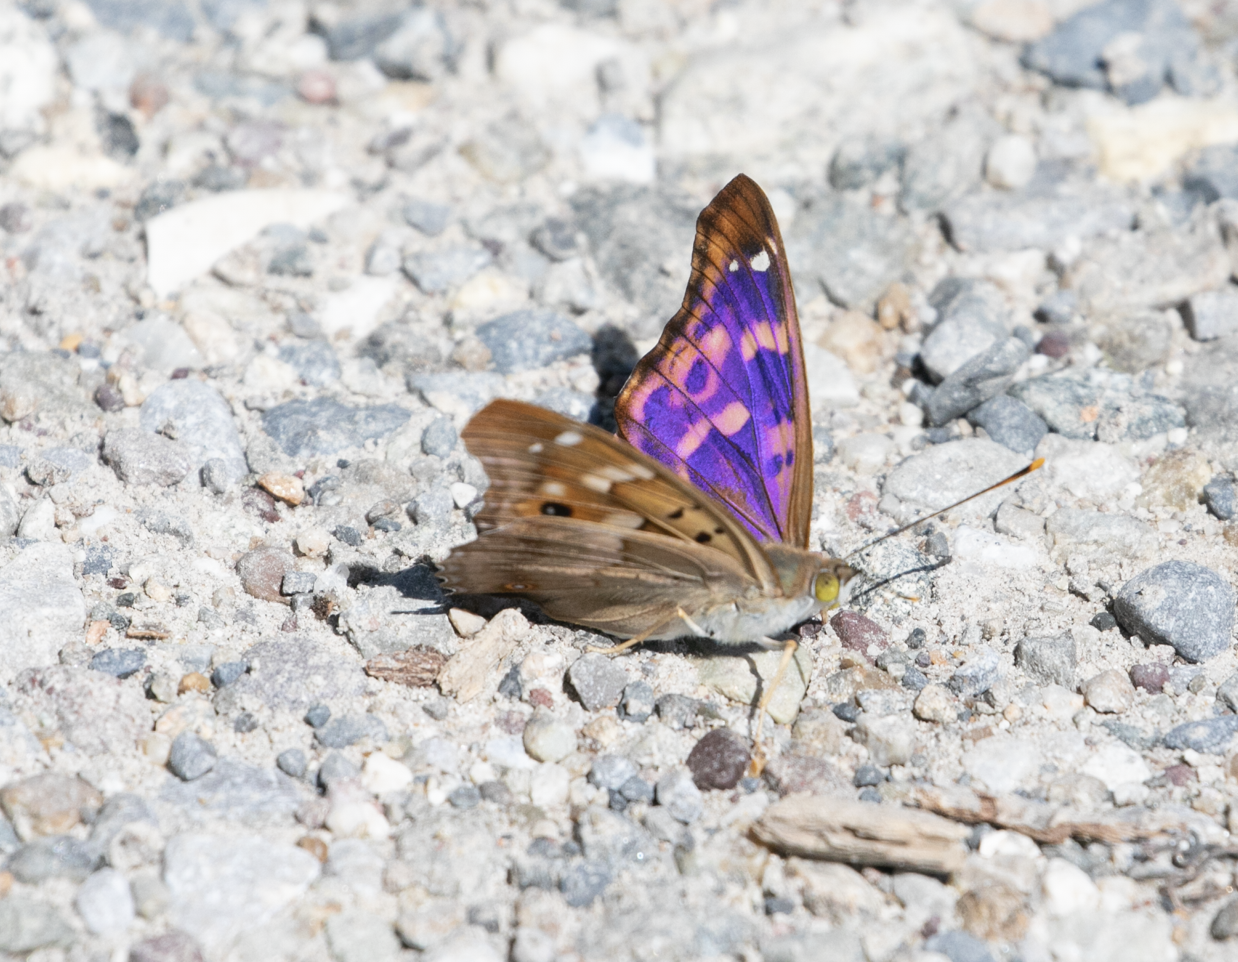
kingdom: Animalia
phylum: Arthropoda
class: Insecta
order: Lepidoptera
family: Nymphalidae
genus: Apatura
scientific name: Apatura ilia
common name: Lesser purple emperor
